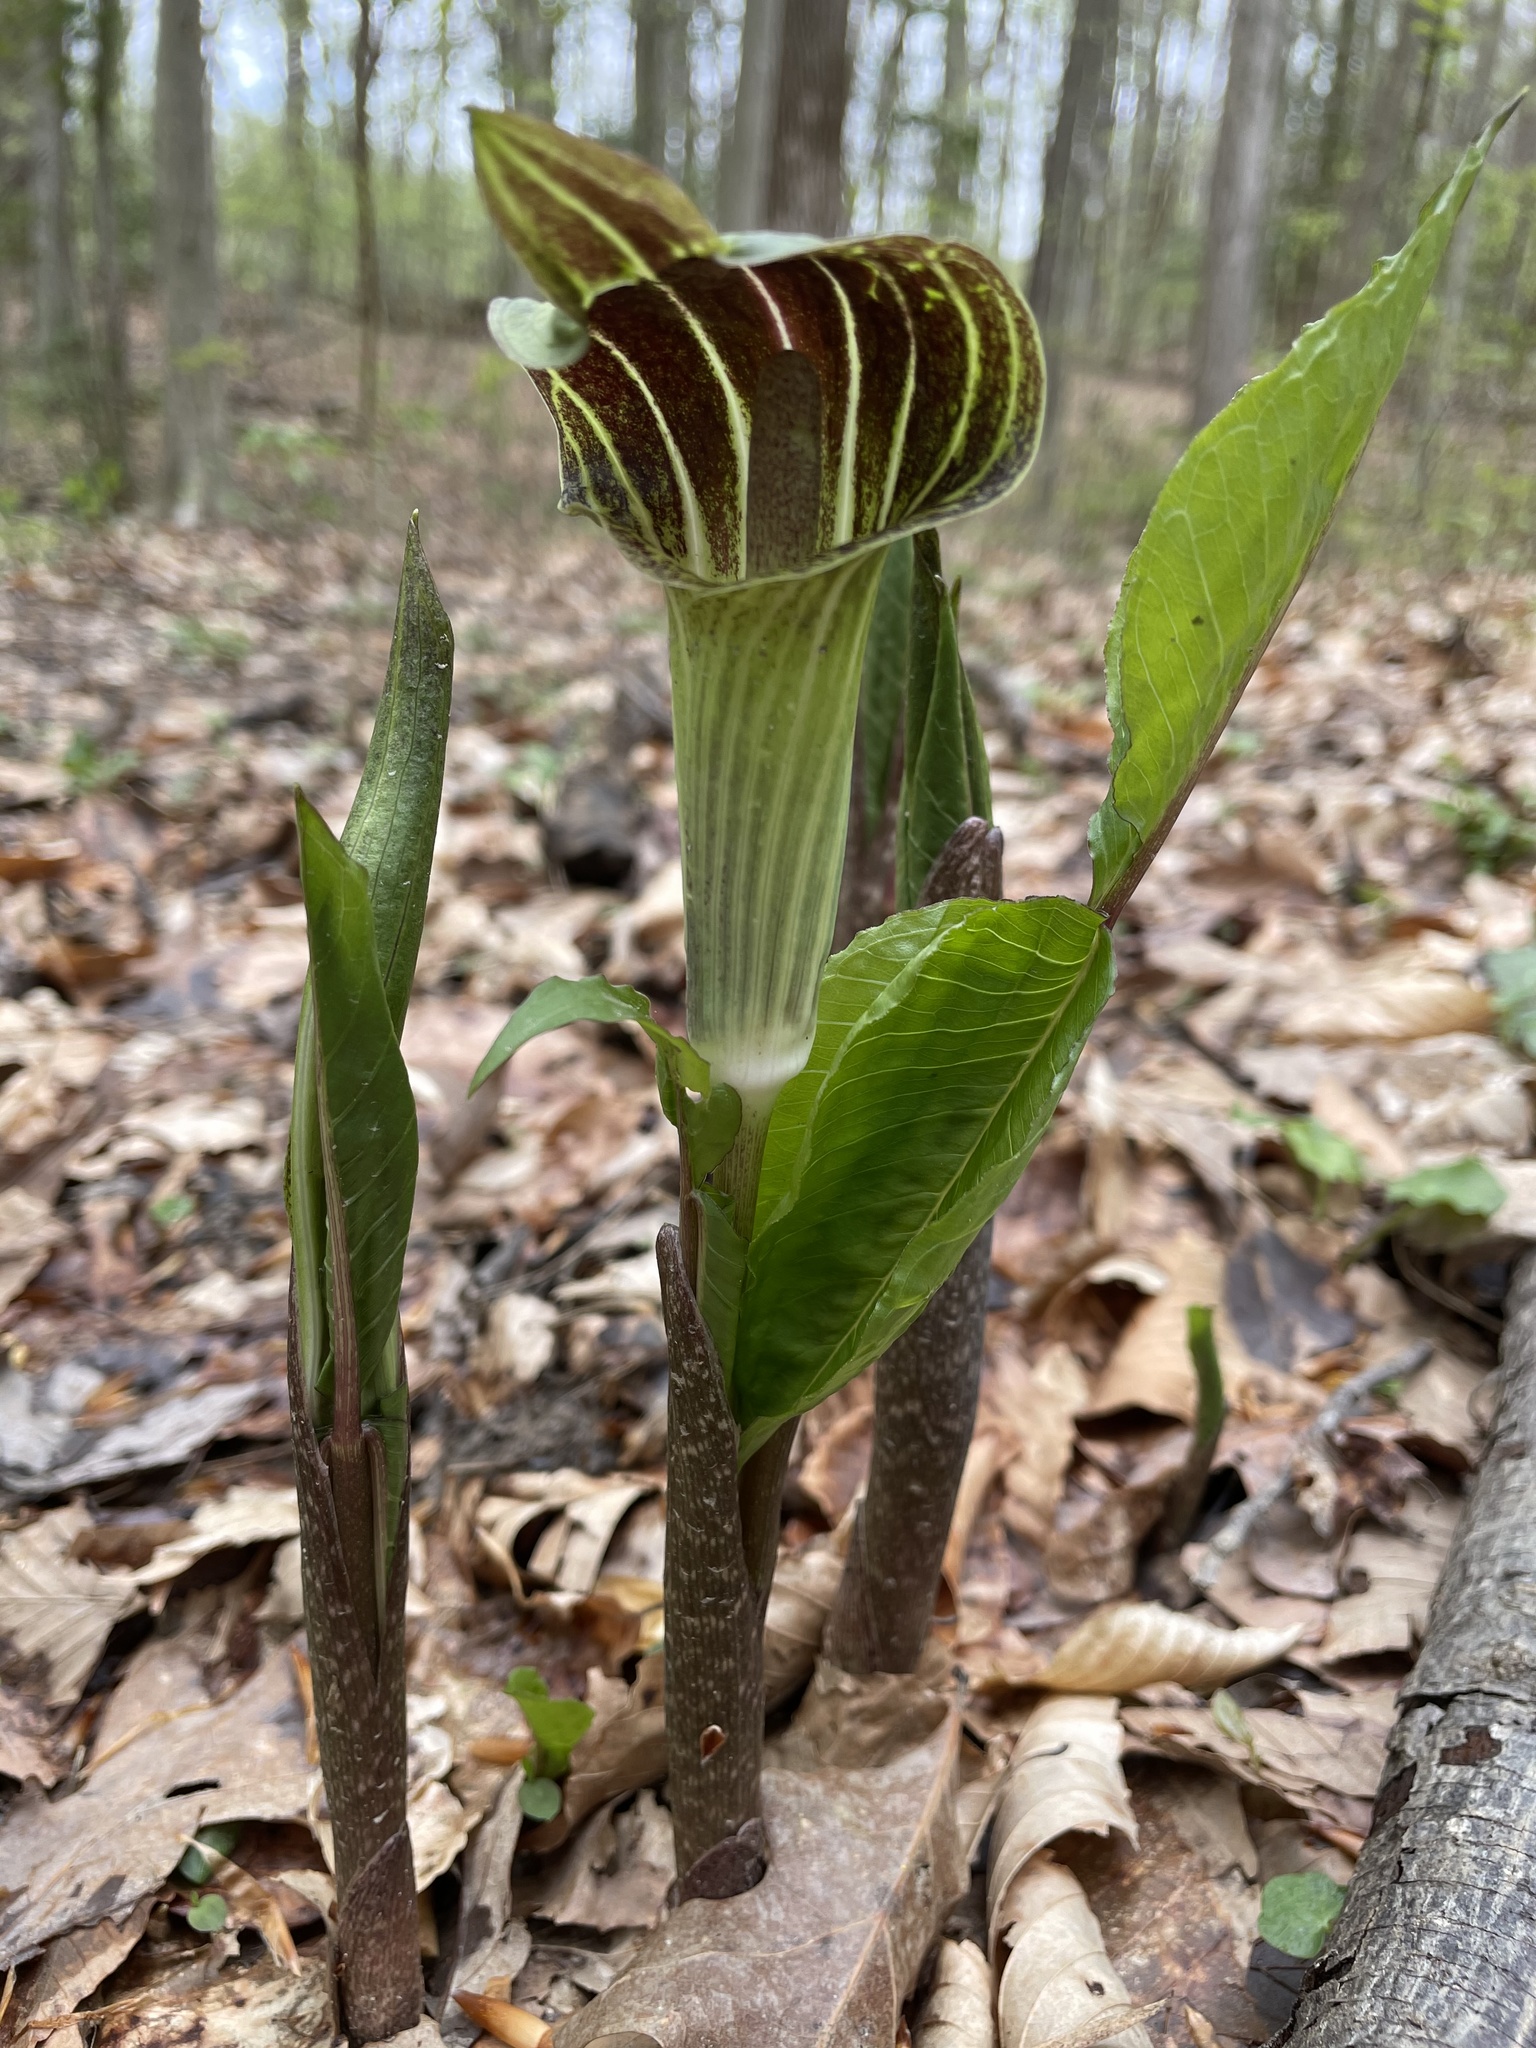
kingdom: Plantae
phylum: Tracheophyta
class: Liliopsida
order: Alismatales
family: Araceae
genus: Arisaema
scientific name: Arisaema triphyllum
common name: Jack-in-the-pulpit
